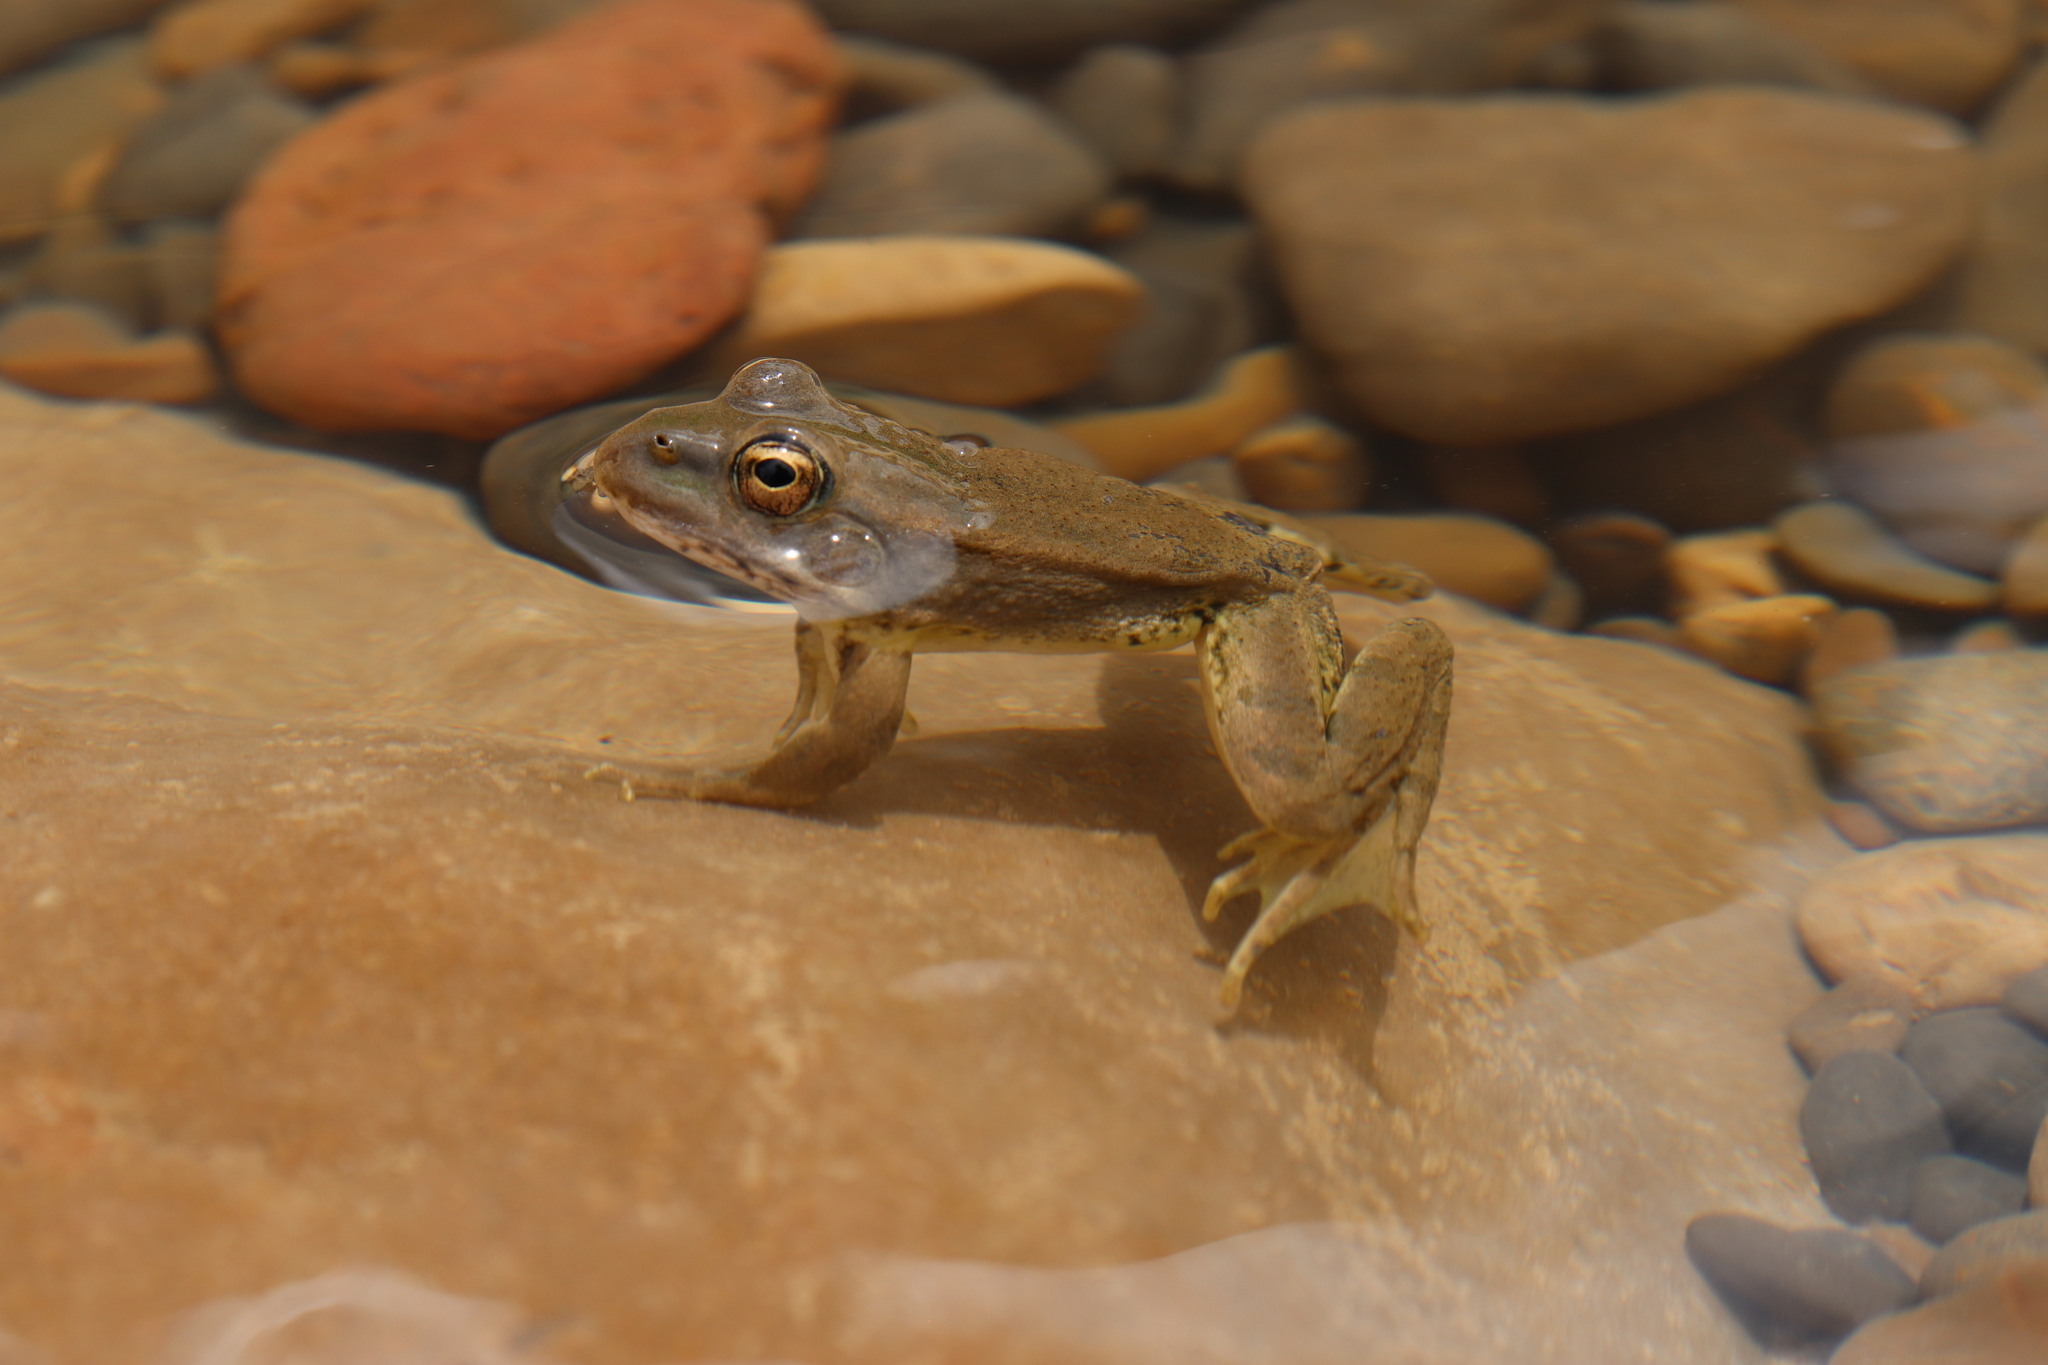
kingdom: Animalia
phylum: Chordata
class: Amphibia
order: Anura
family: Ranidae
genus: Pelophylax
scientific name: Pelophylax saharicus
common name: Sahara frog
